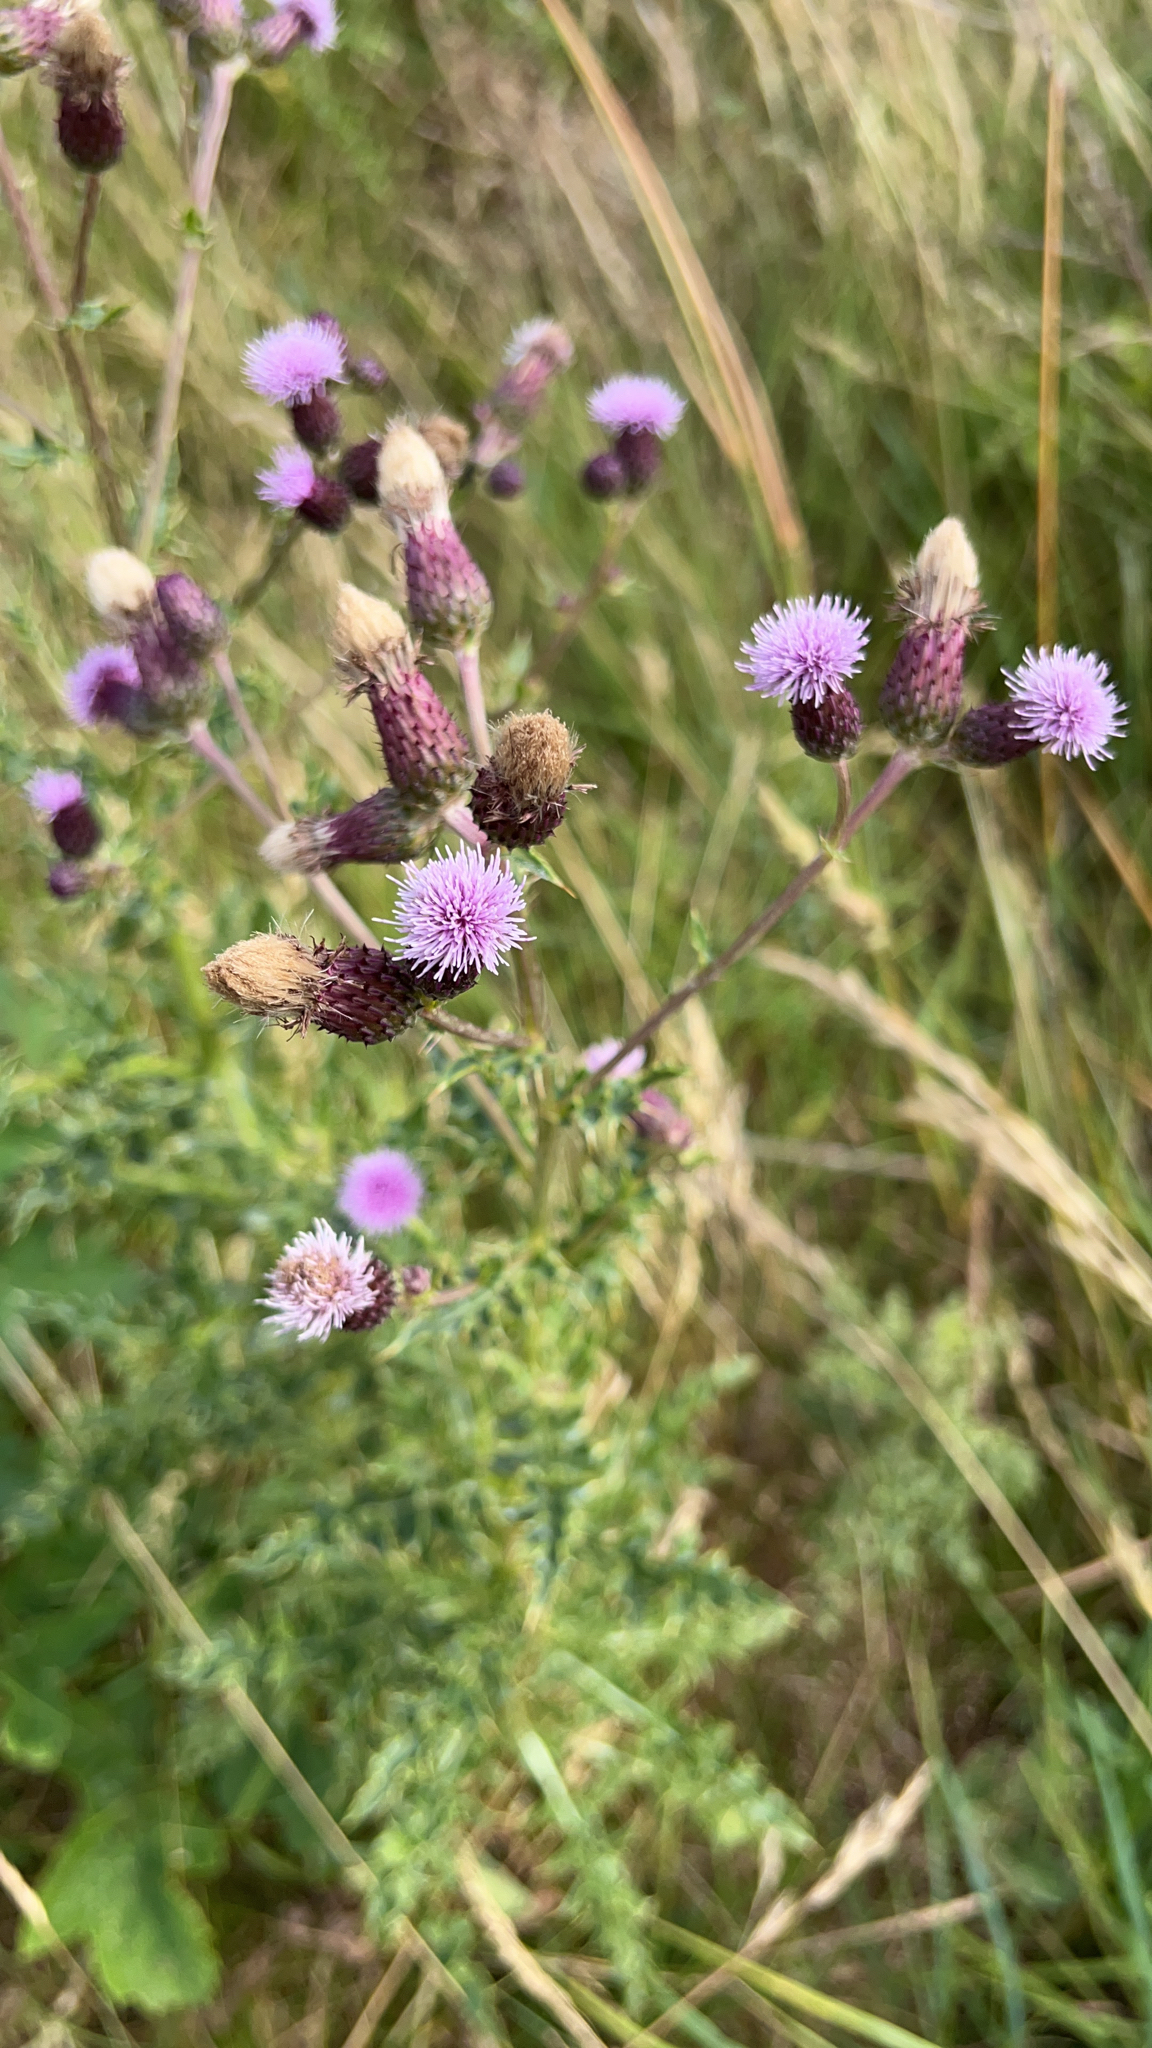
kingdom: Plantae
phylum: Tracheophyta
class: Magnoliopsida
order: Asterales
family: Asteraceae
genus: Cirsium
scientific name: Cirsium arvense
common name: Creeping thistle
